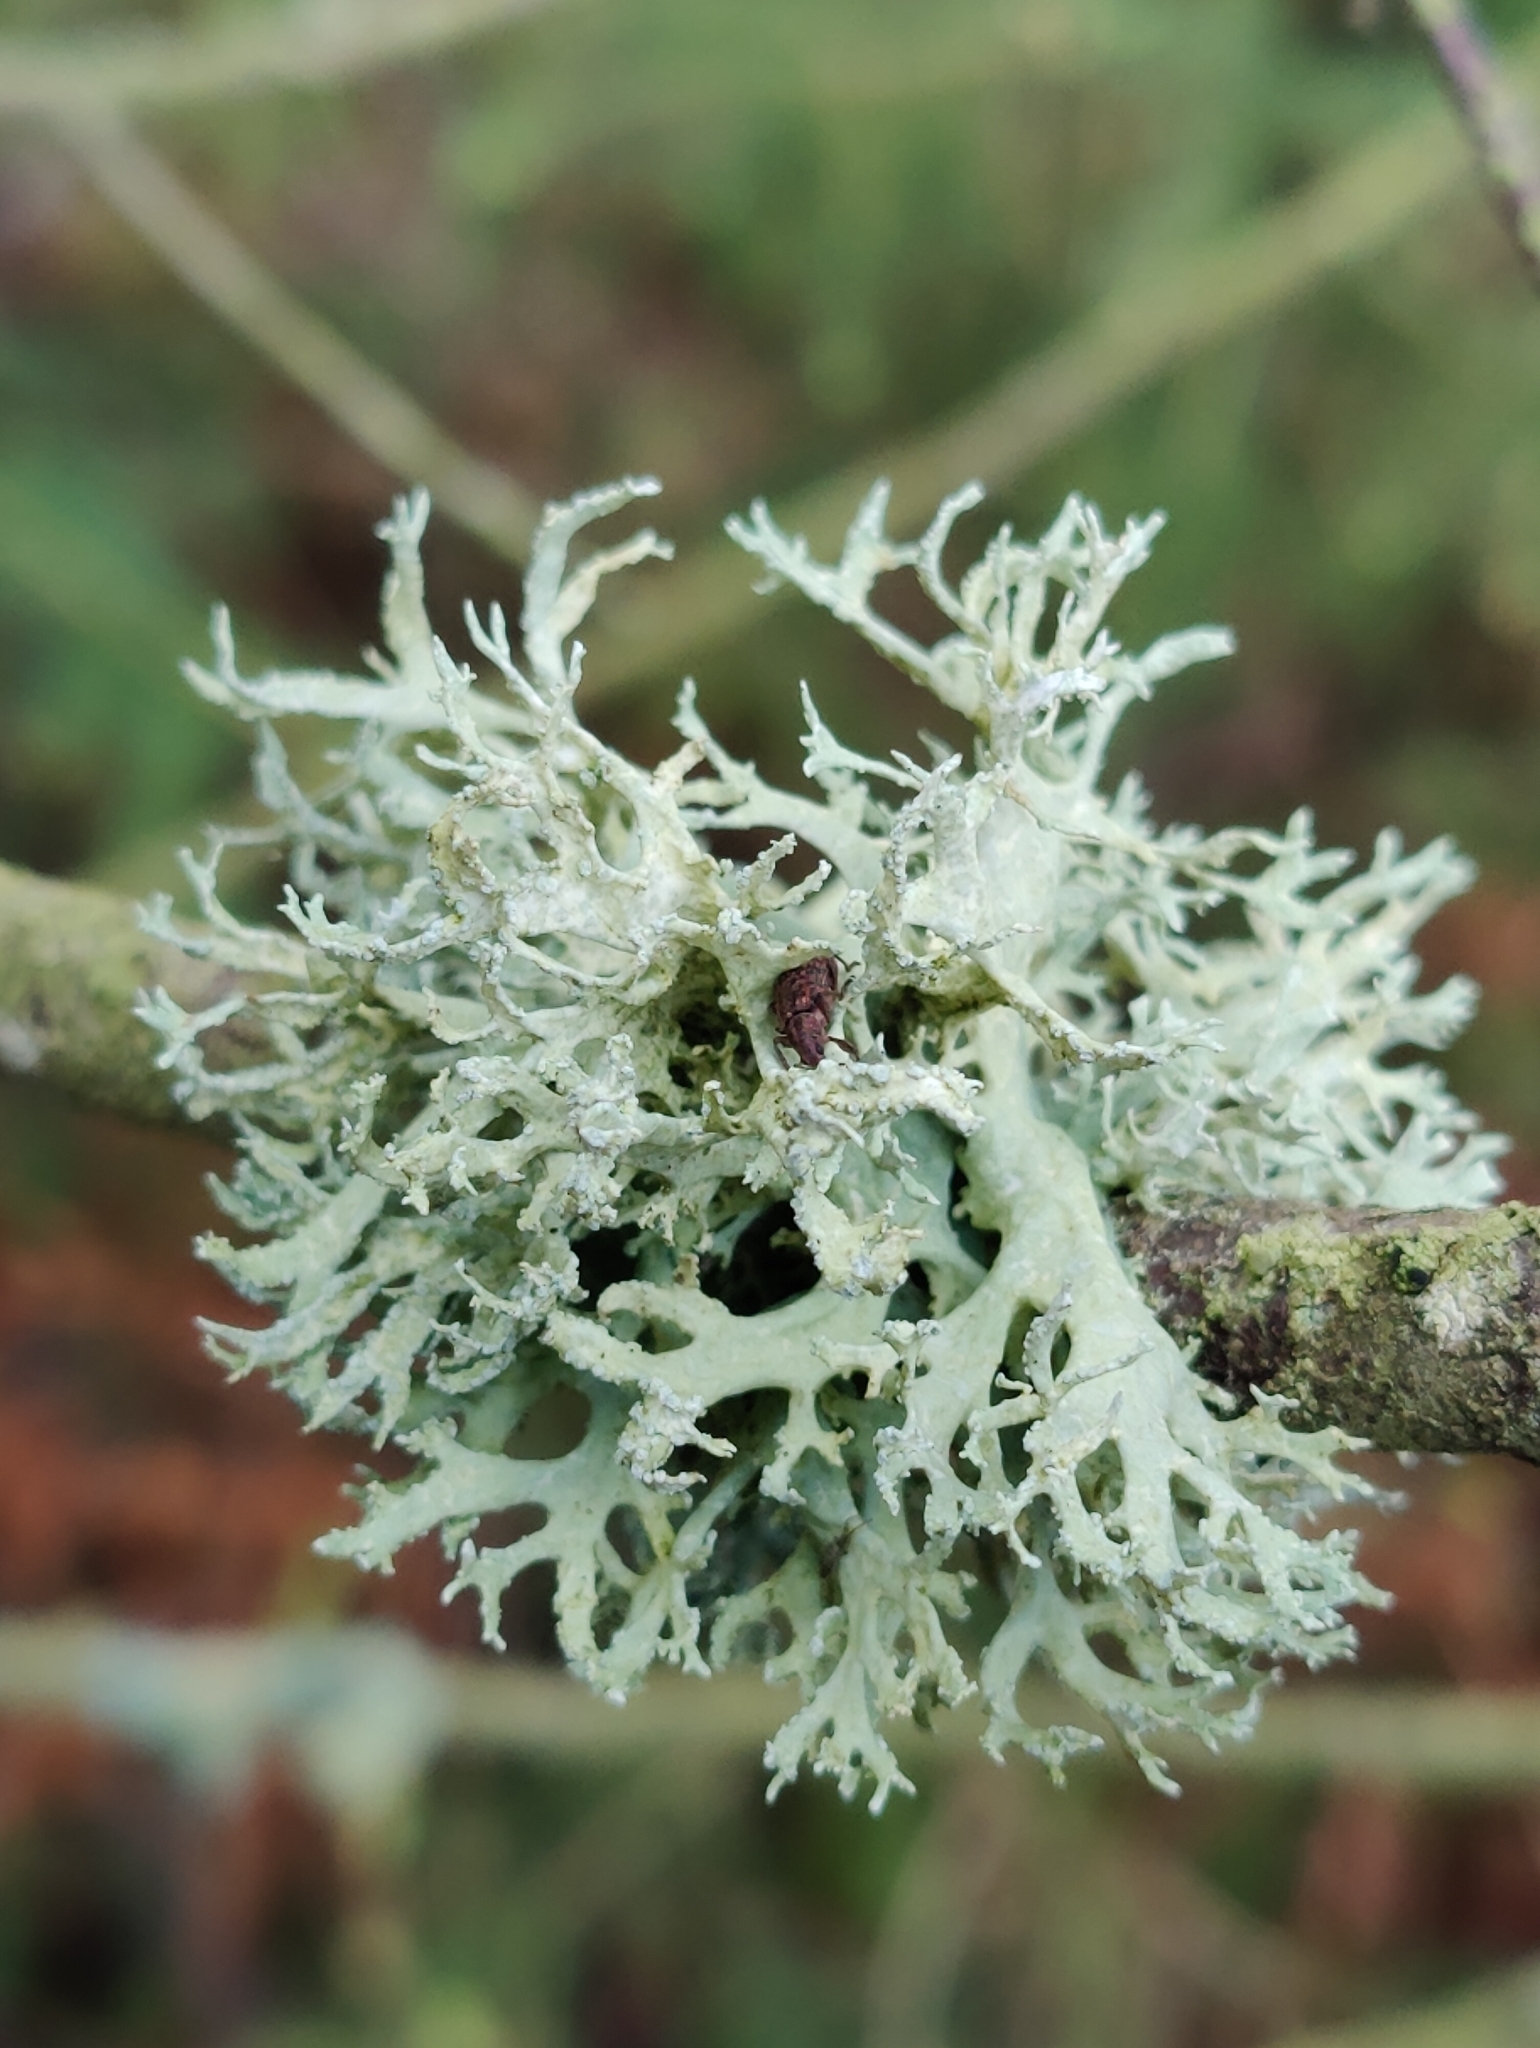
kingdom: Fungi
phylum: Ascomycota
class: Lecanoromycetes
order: Lecanorales
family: Parmeliaceae
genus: Evernia
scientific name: Evernia prunastri
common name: Oak moss
